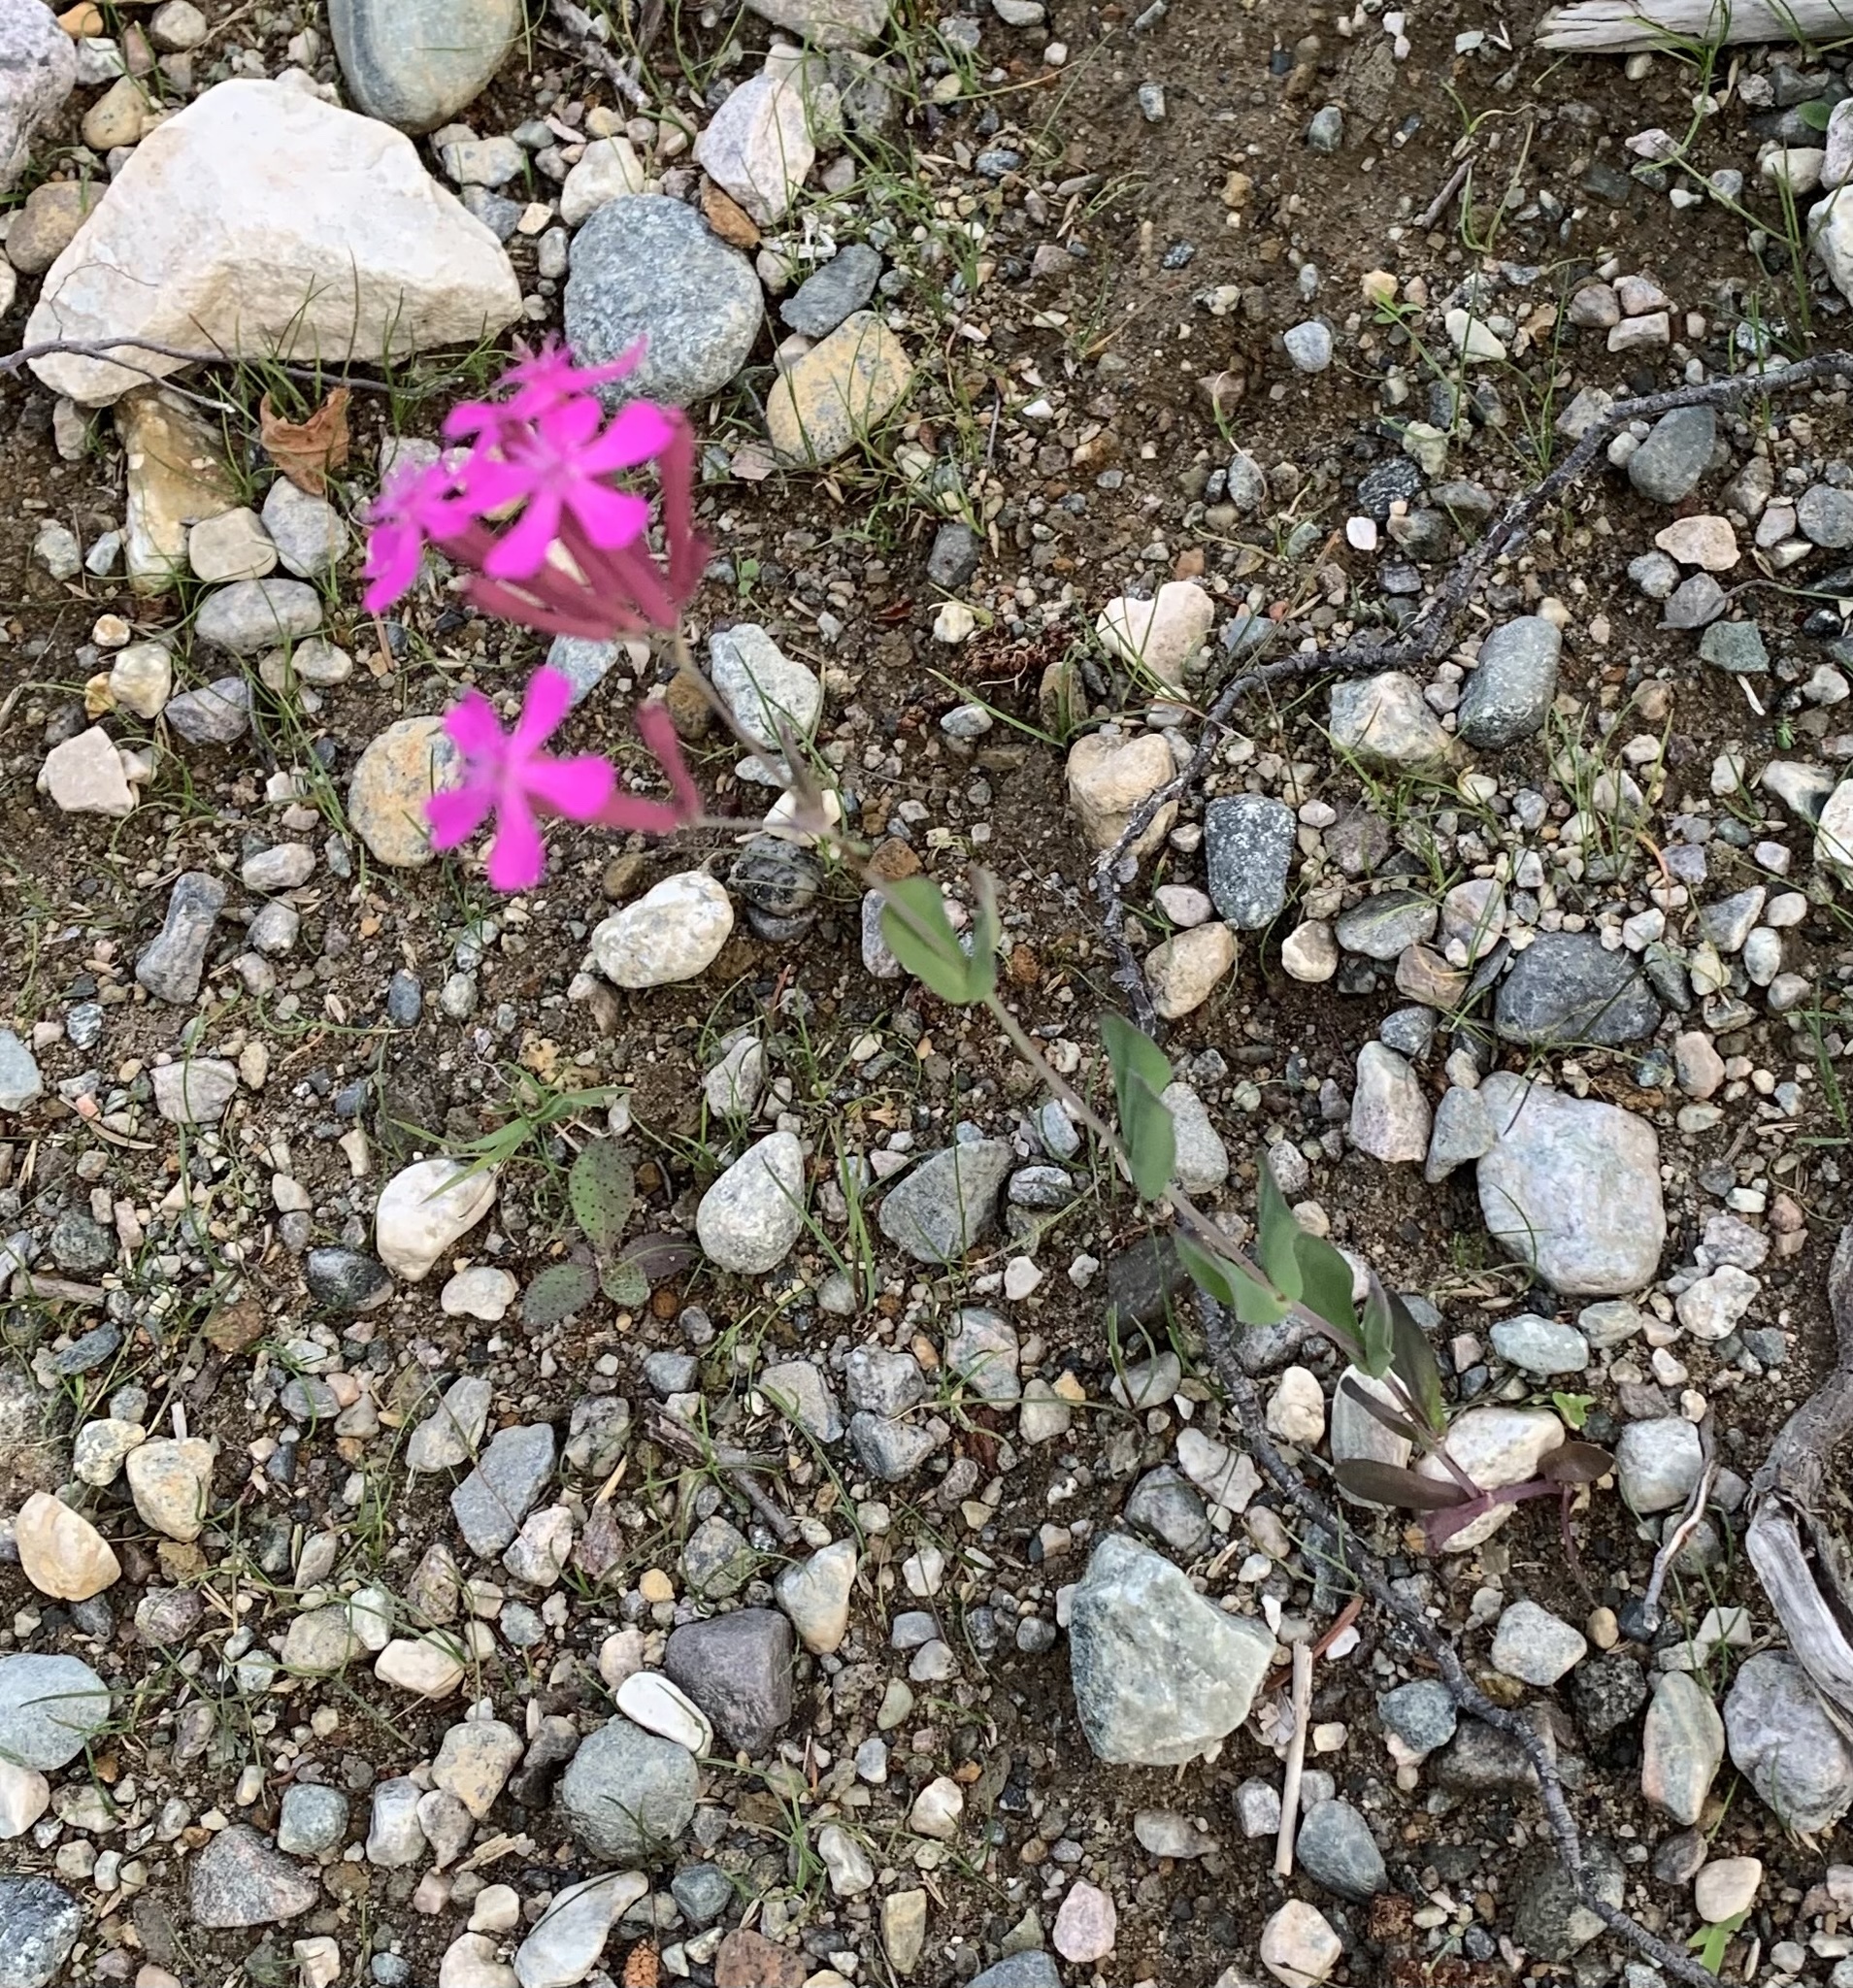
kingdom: Plantae
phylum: Tracheophyta
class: Magnoliopsida
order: Caryophyllales
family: Caryophyllaceae
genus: Atocion
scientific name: Atocion armeria
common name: Sweet william catchfly
